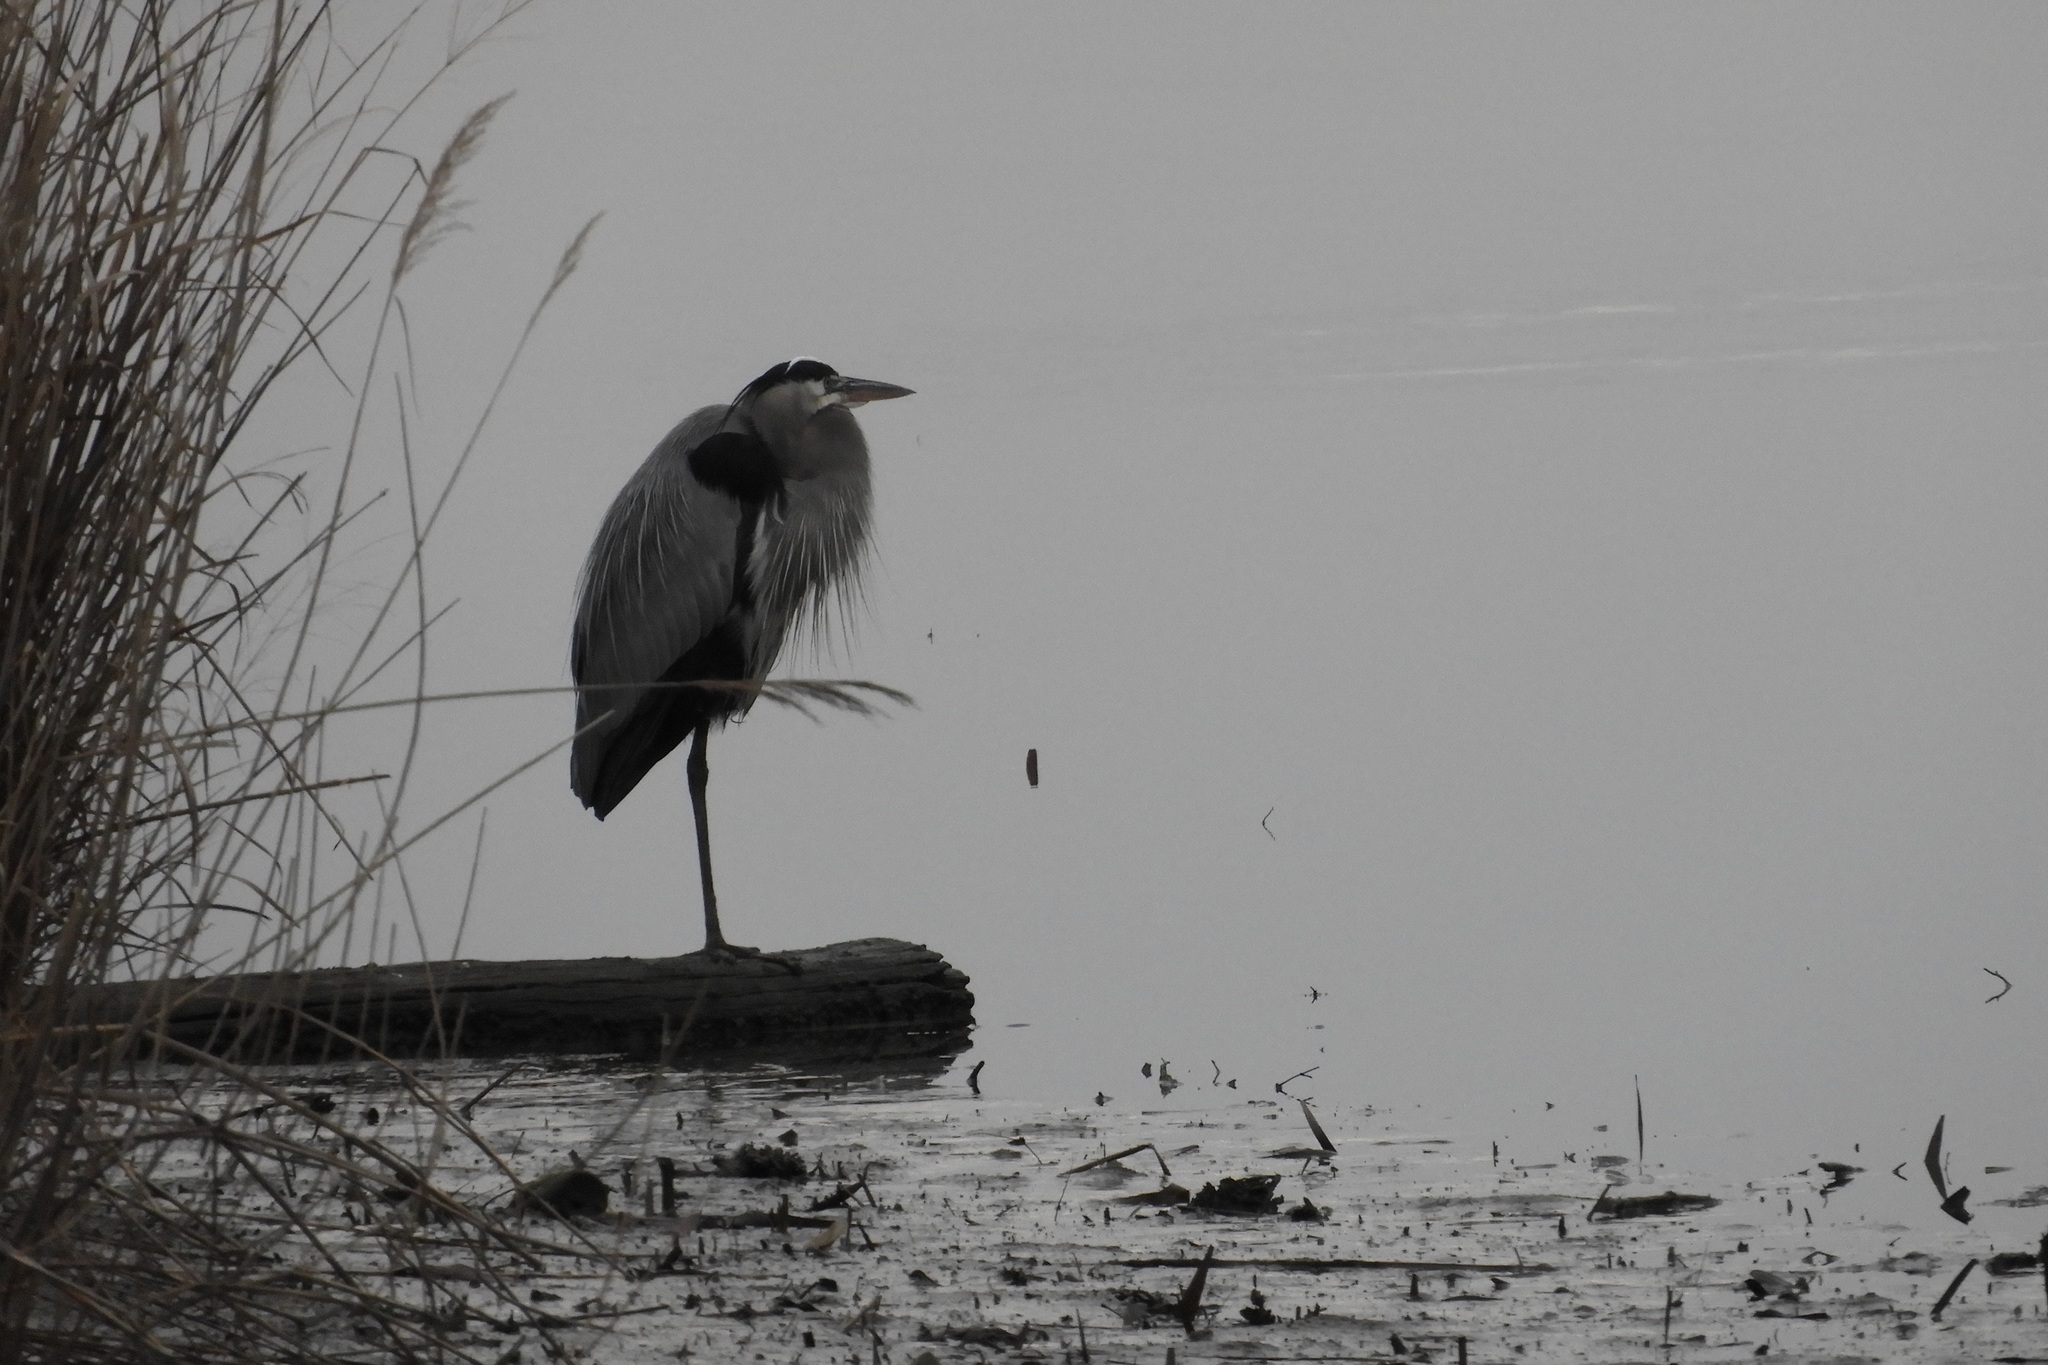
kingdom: Animalia
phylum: Chordata
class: Aves
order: Pelecaniformes
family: Ardeidae
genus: Ardea
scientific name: Ardea herodias
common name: Great blue heron
